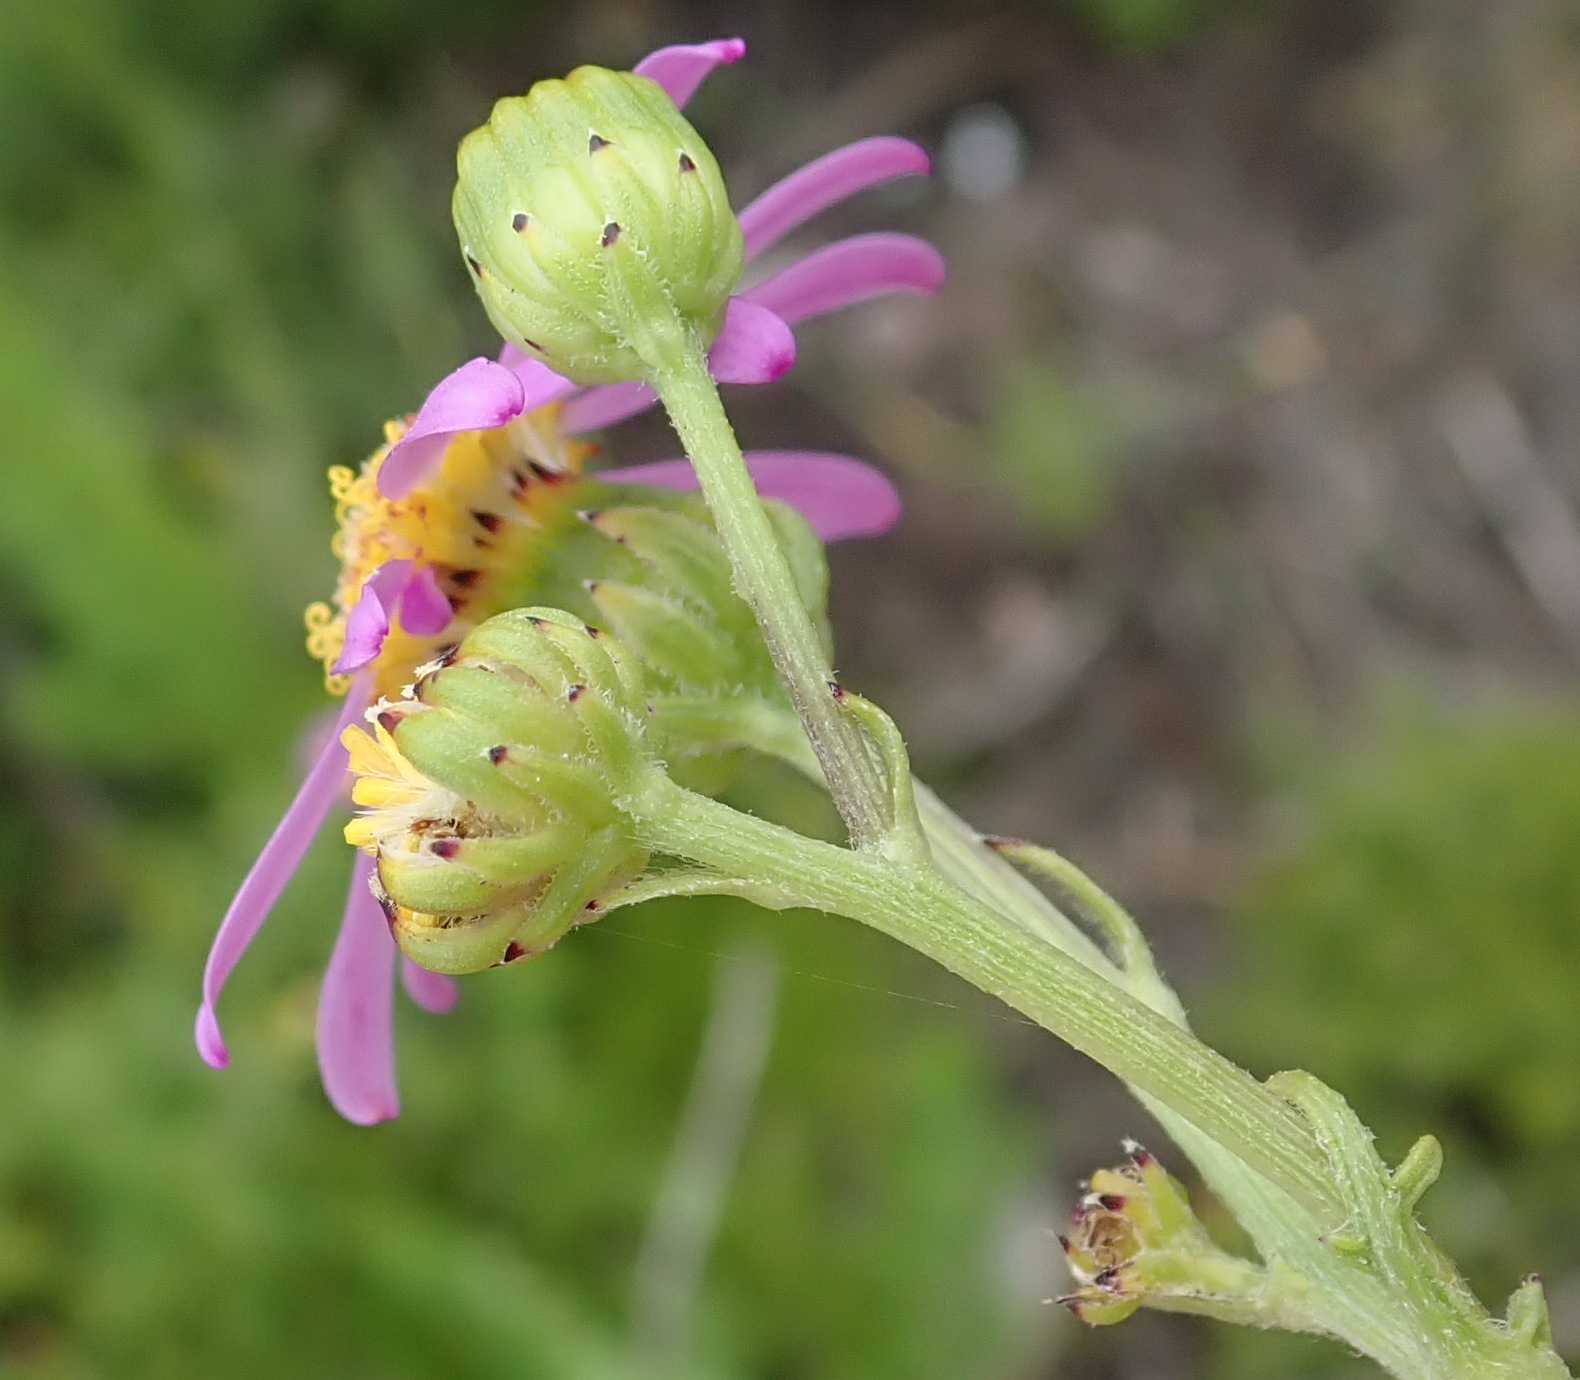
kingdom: Plantae
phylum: Tracheophyta
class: Magnoliopsida
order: Asterales
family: Asteraceae
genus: Senecio
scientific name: Senecio elegans
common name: Purple groundsel
